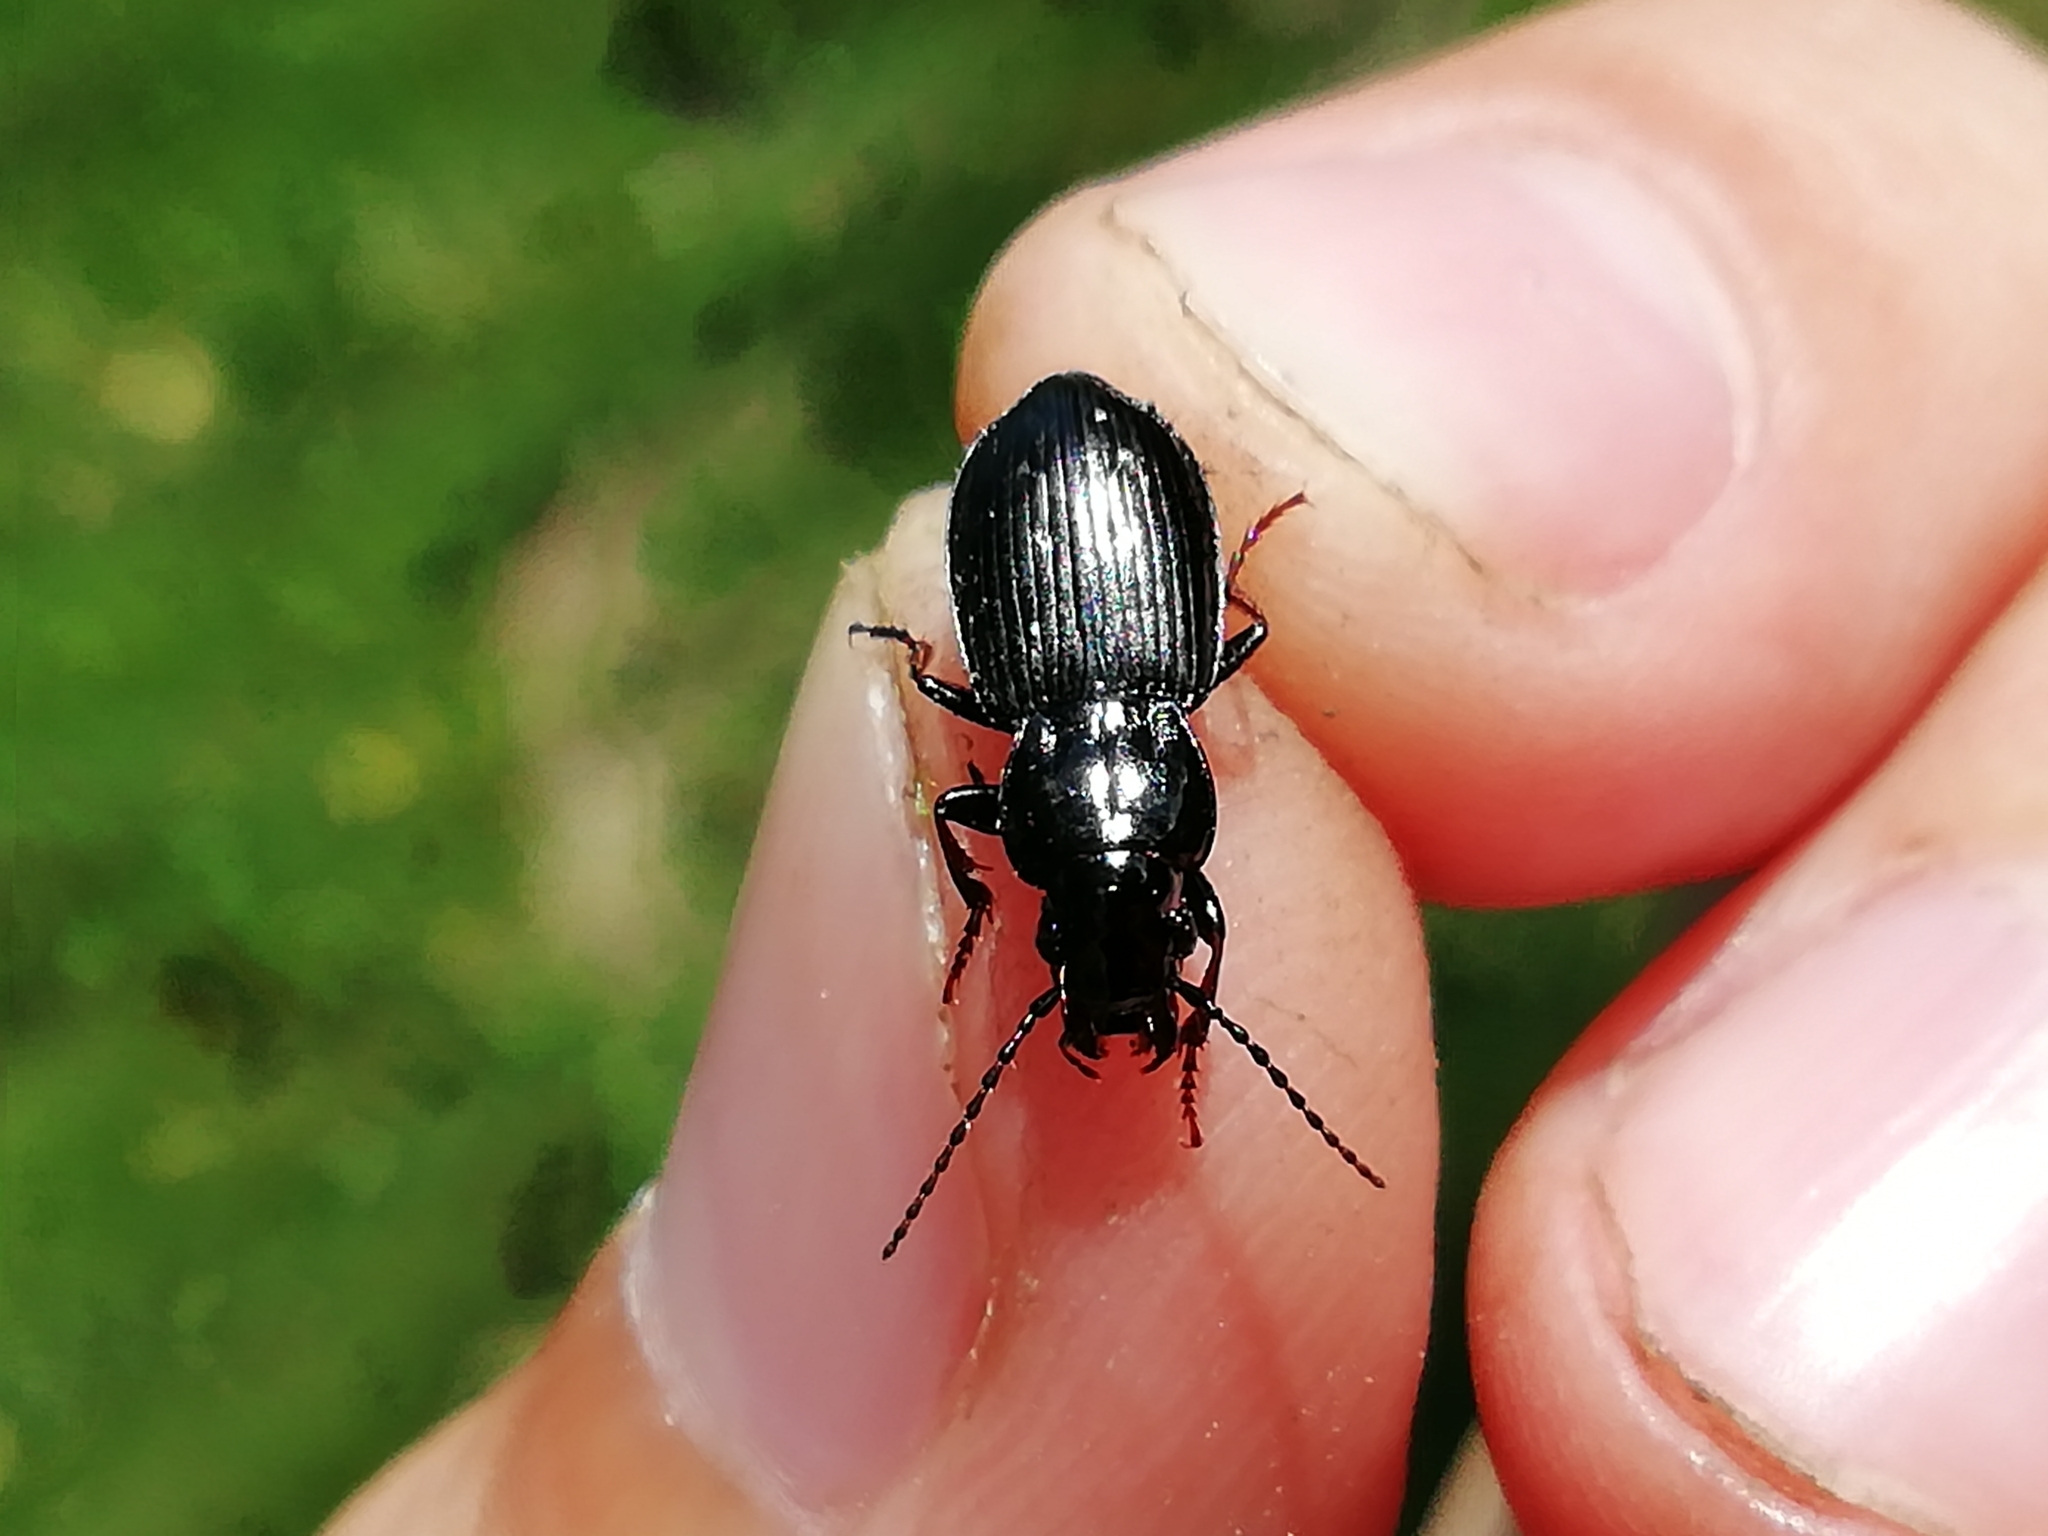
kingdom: Animalia
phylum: Arthropoda
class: Insecta
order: Coleoptera
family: Carabidae
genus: Pterostichus
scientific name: Pterostichus oblongopunctatus
